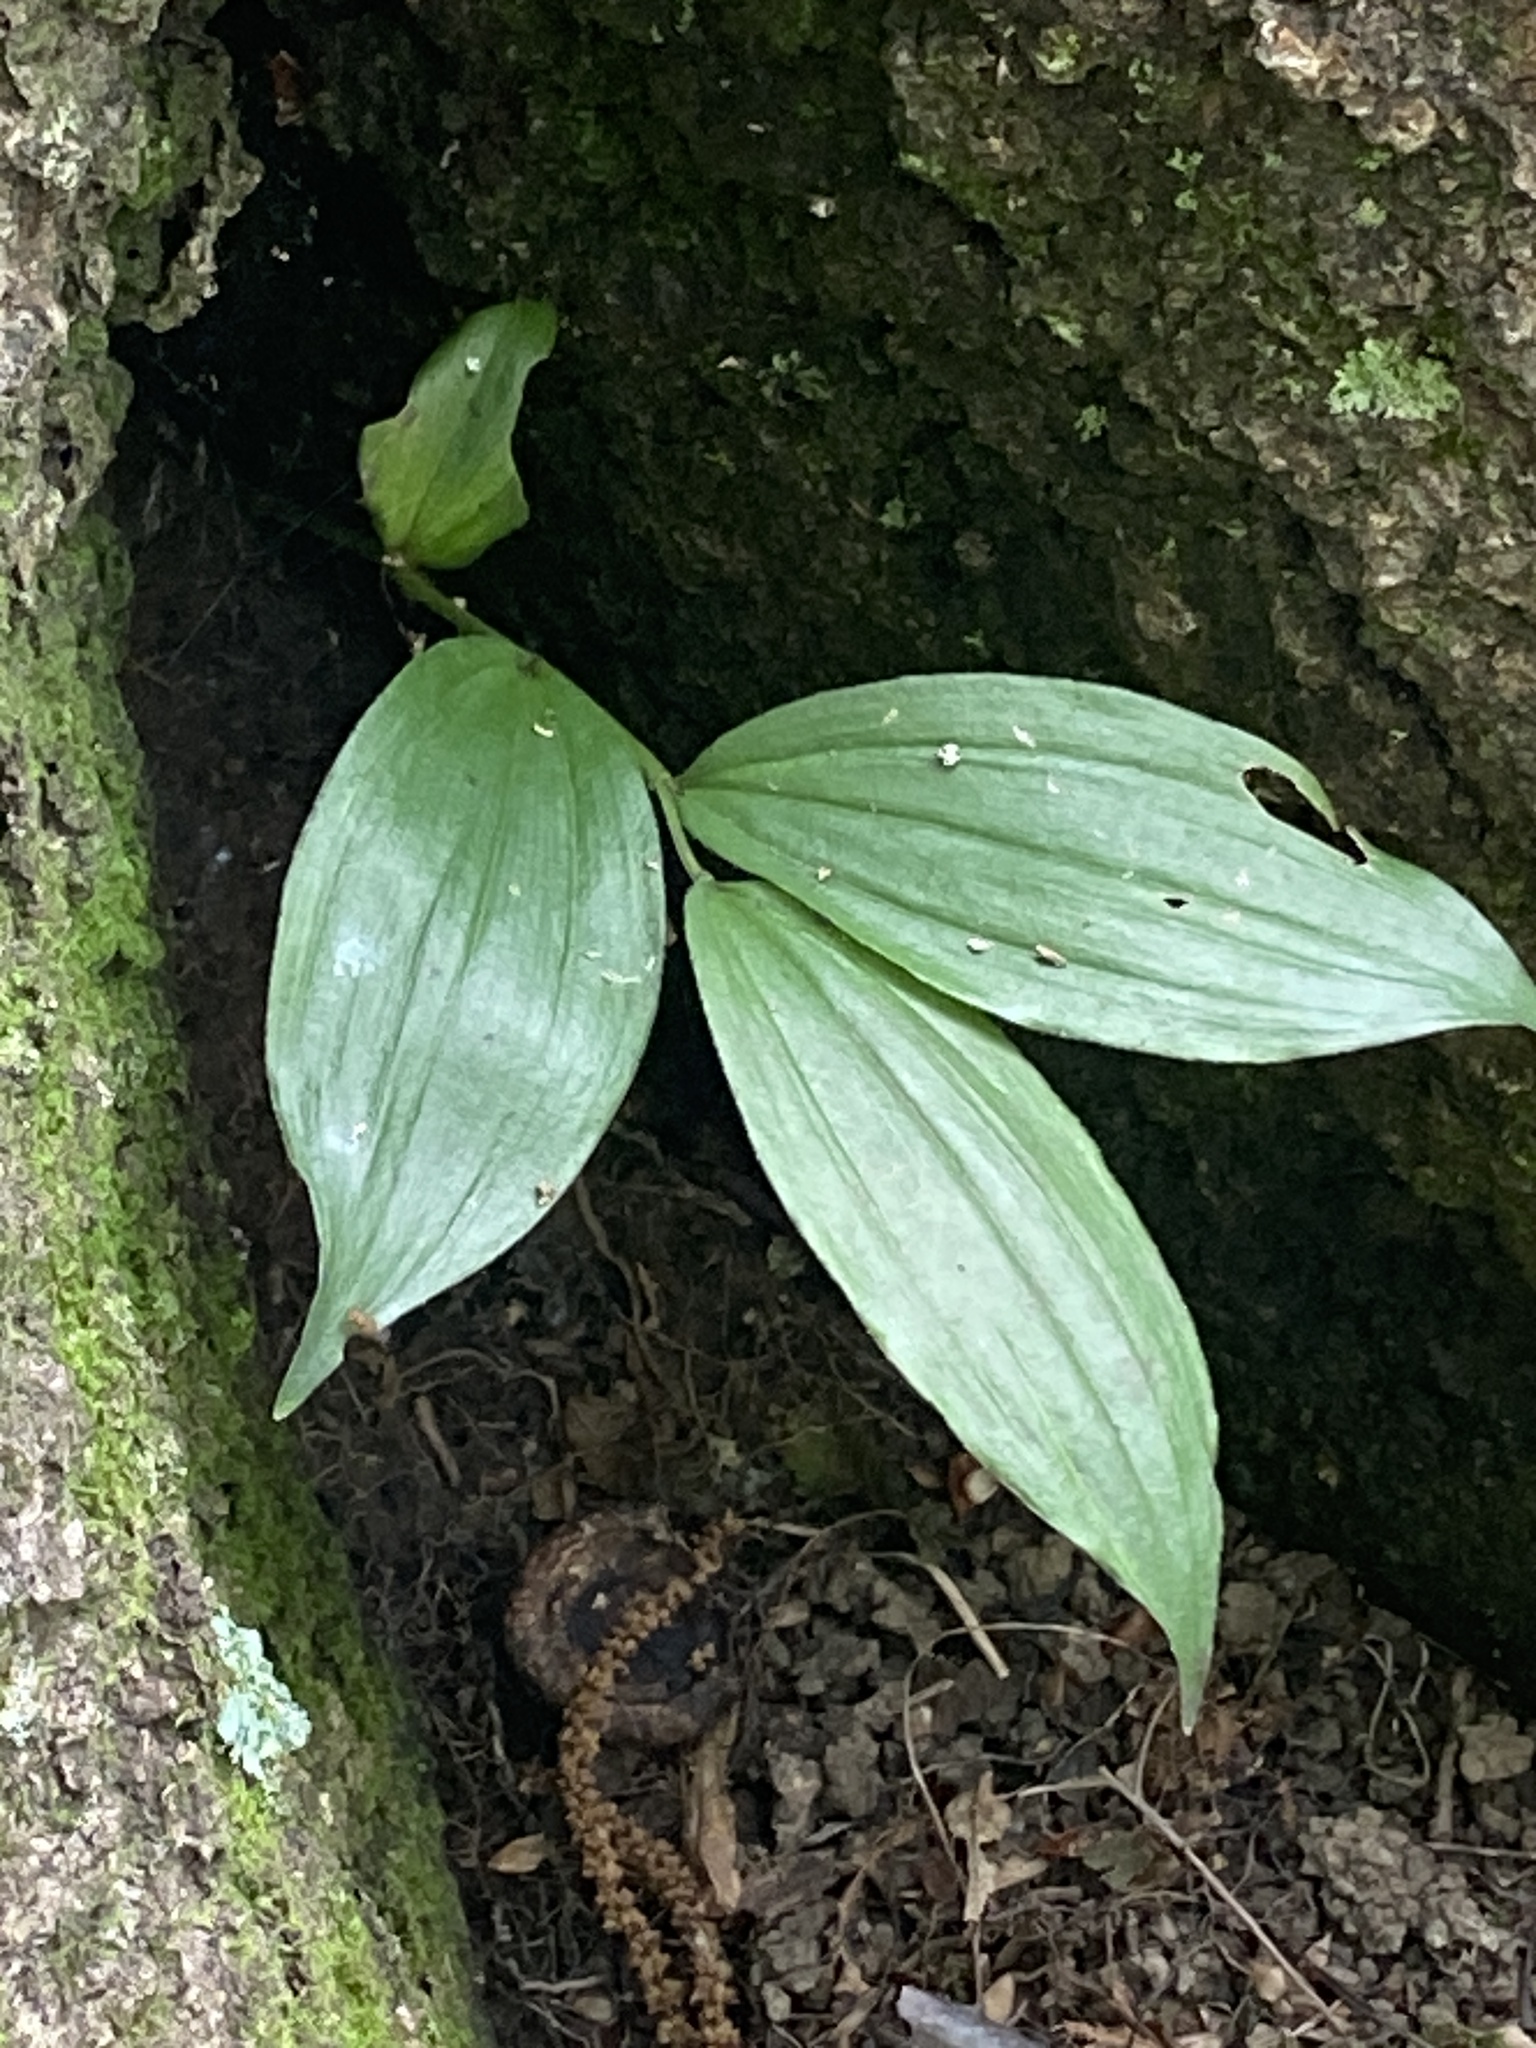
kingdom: Plantae
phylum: Tracheophyta
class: Liliopsida
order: Asparagales
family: Asparagaceae
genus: Maianthemum
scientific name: Maianthemum racemosum
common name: False spikenard
